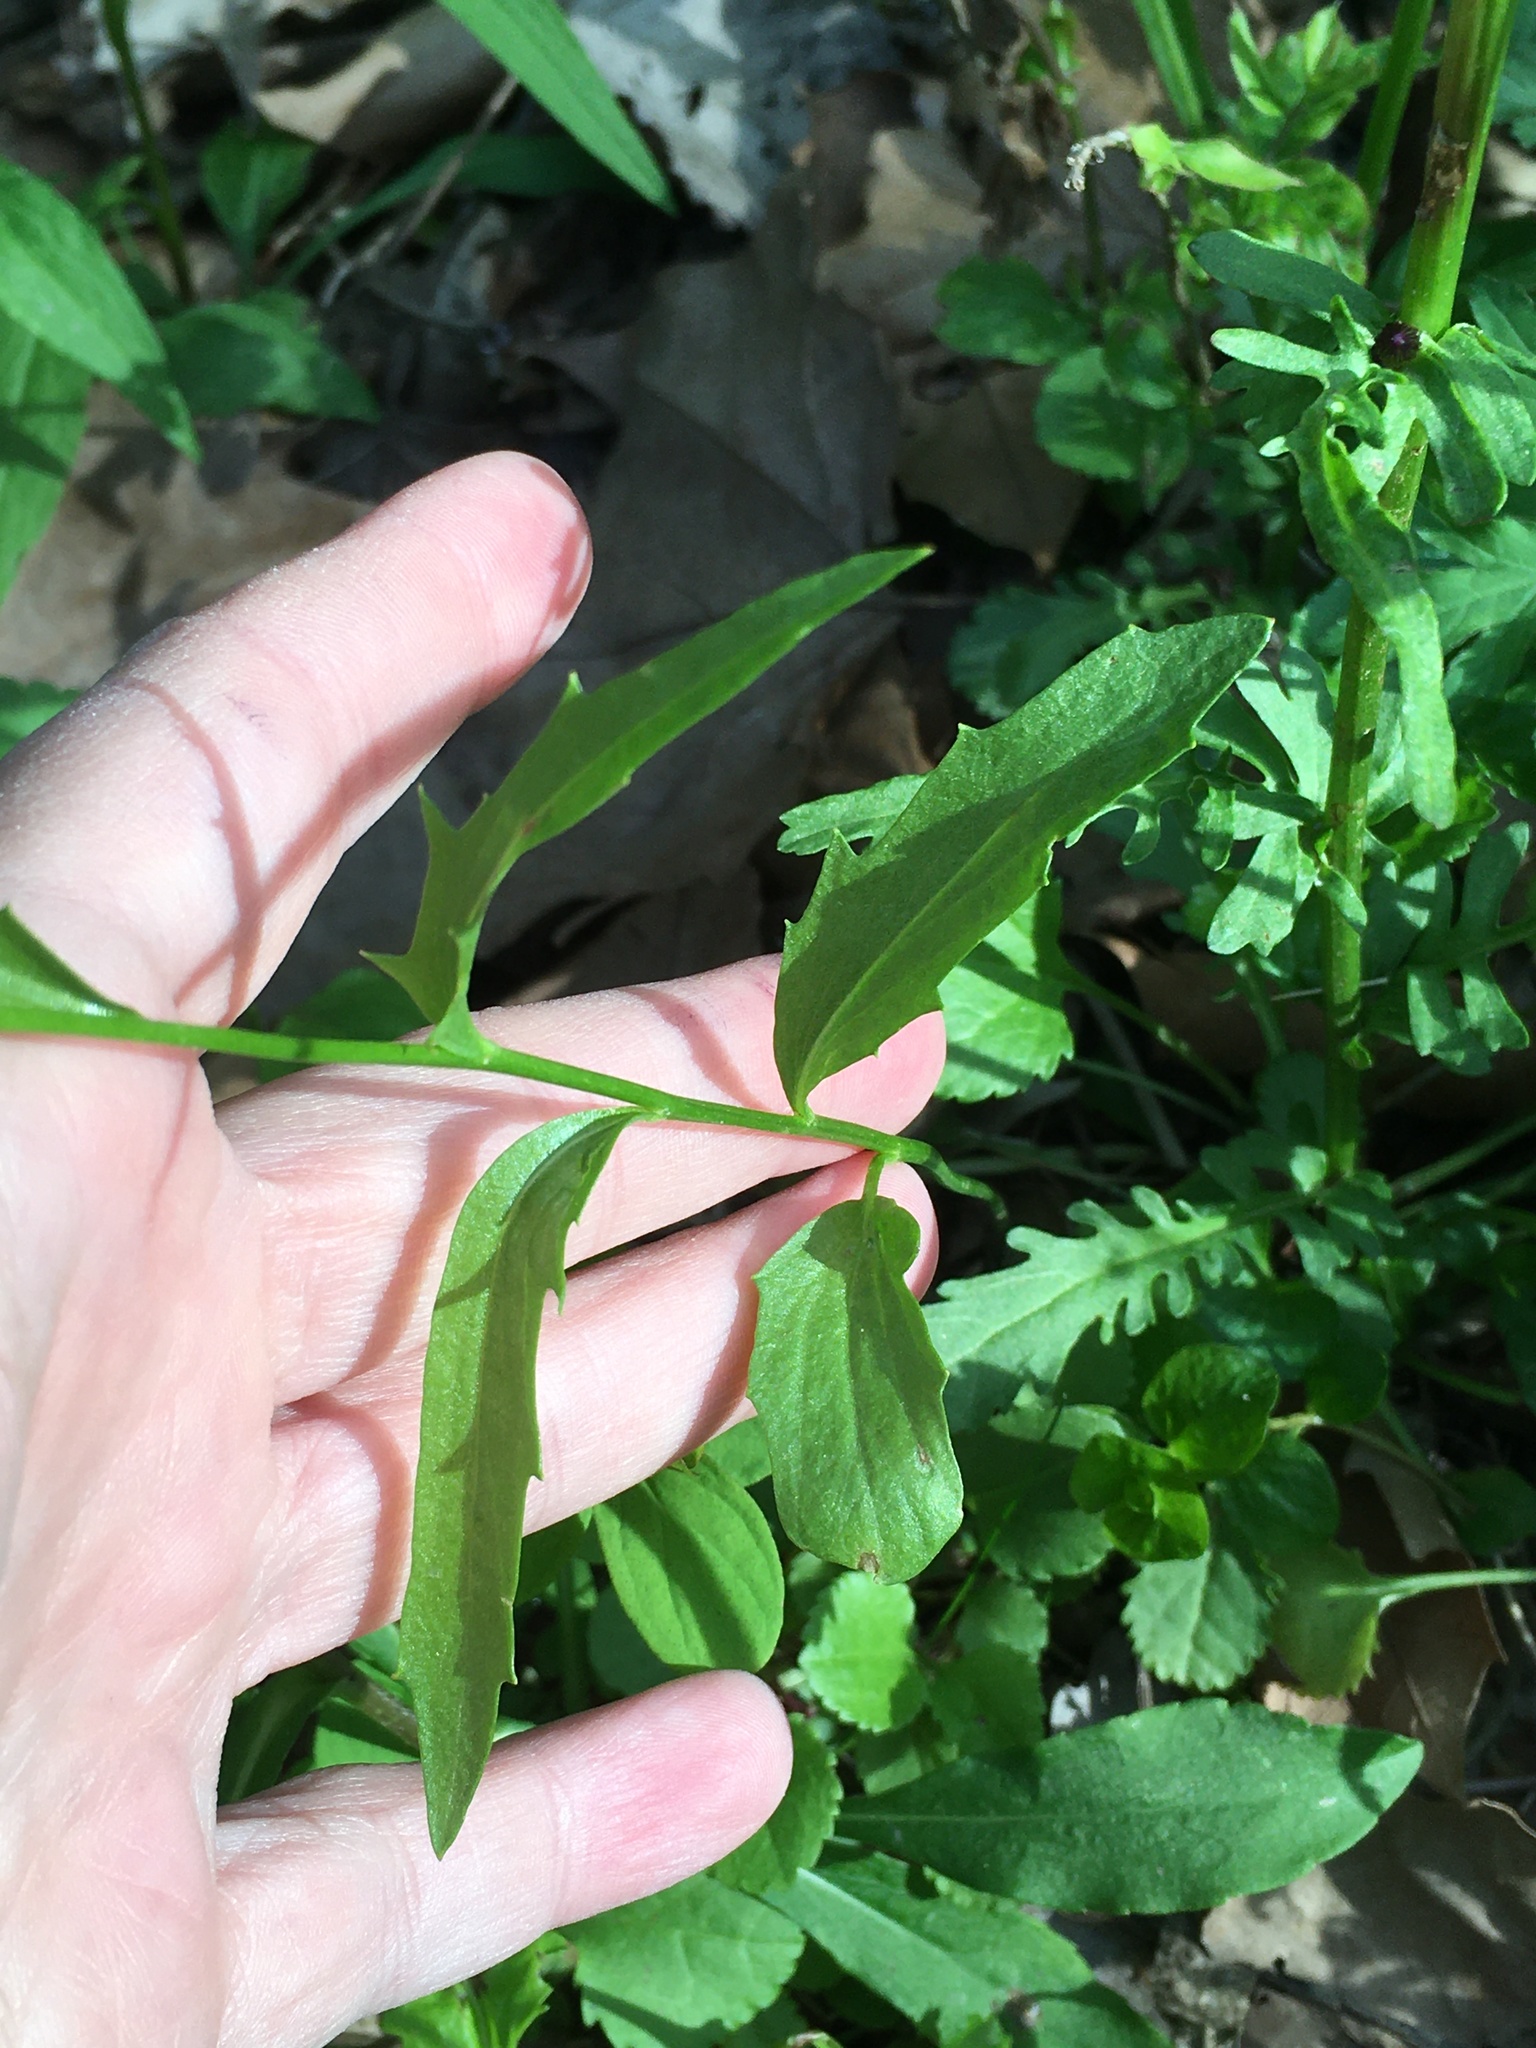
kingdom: Plantae
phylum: Tracheophyta
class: Magnoliopsida
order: Brassicales
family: Brassicaceae
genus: Cardamine
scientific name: Cardamine bulbosa
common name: Spring cress
